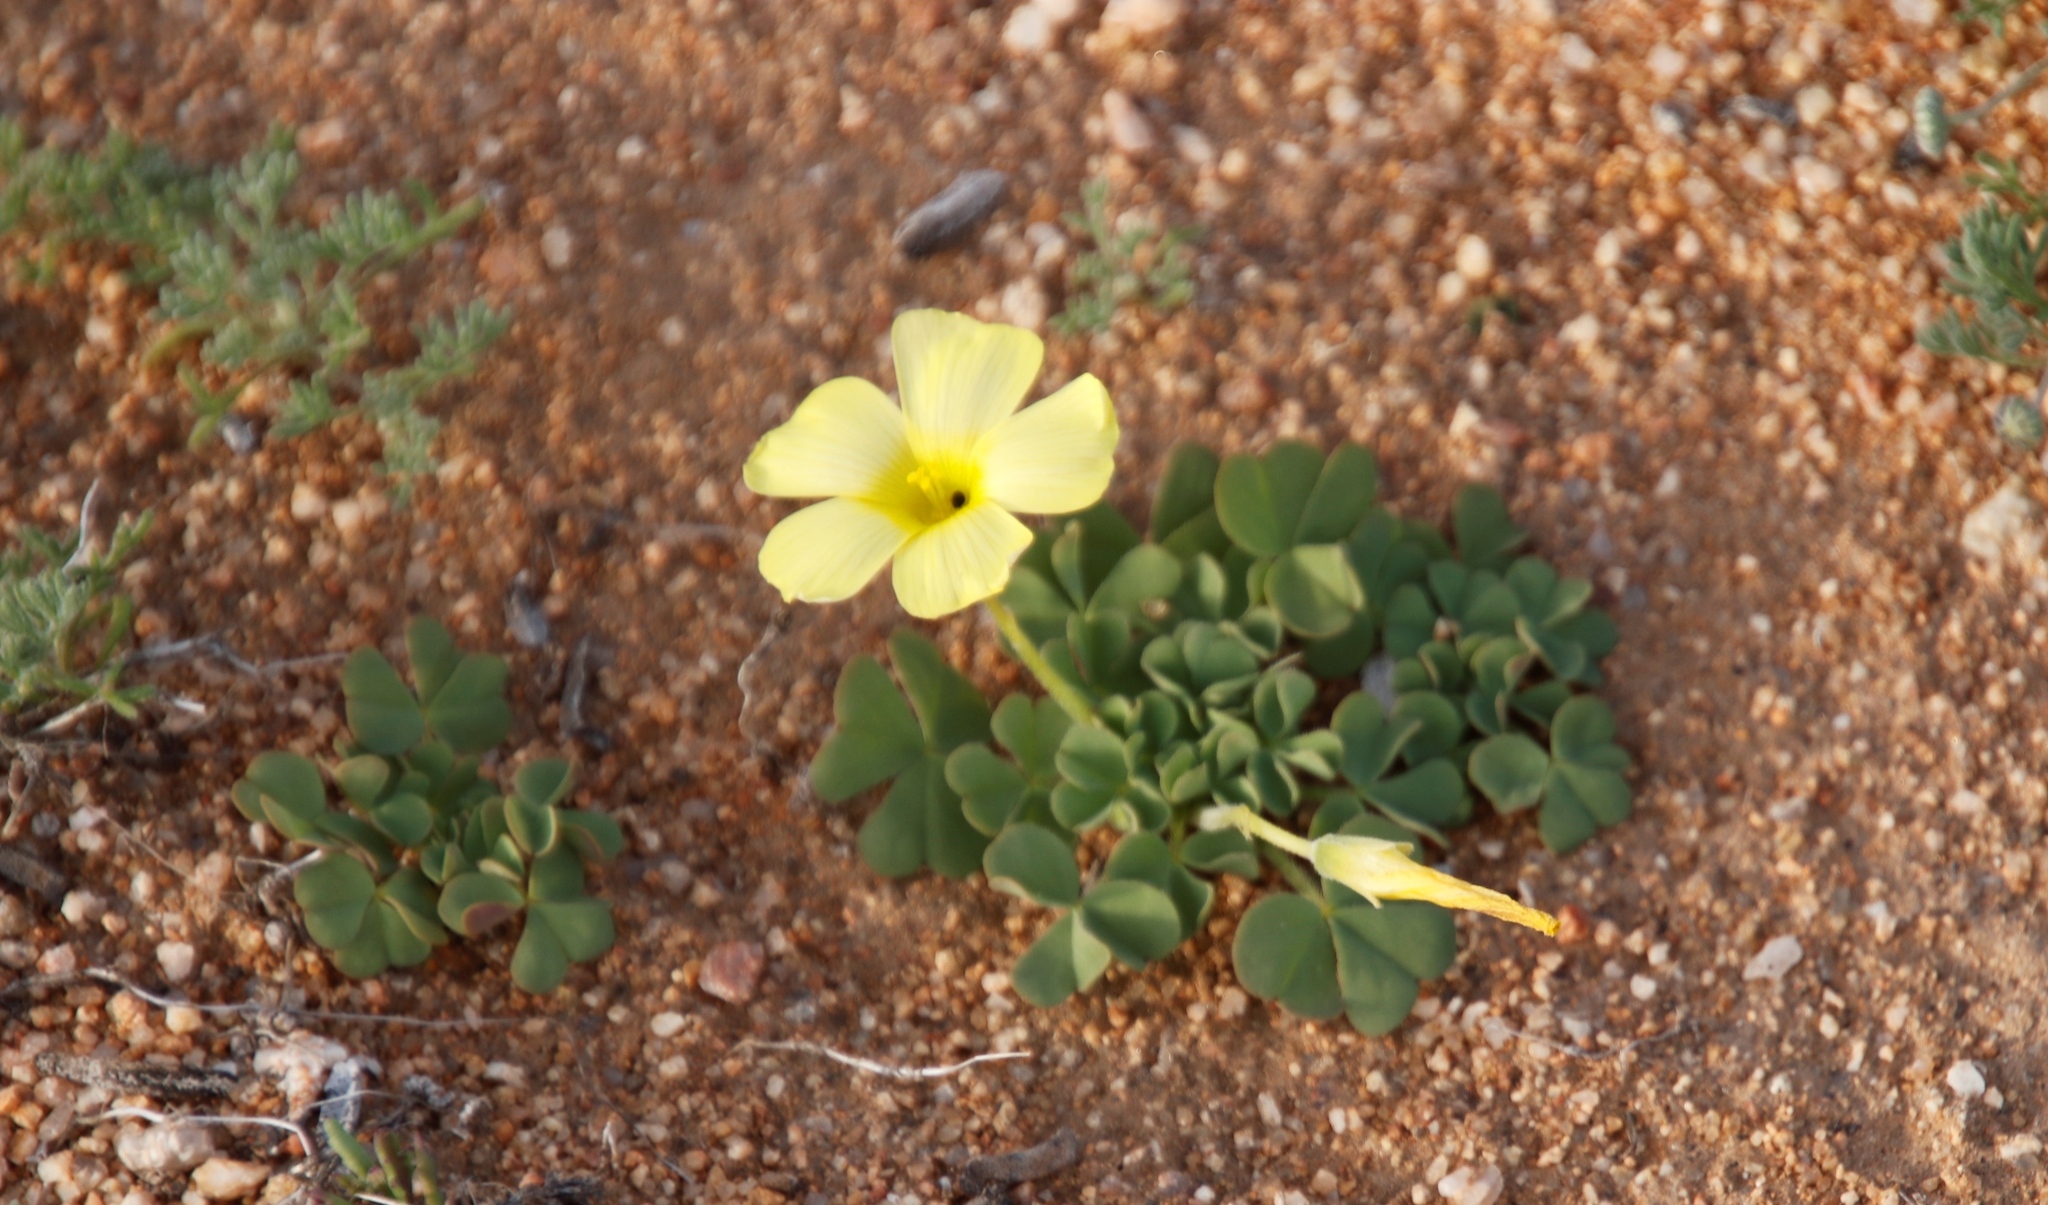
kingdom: Plantae
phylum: Tracheophyta
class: Magnoliopsida
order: Oxalidales
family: Oxalidaceae
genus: Oxalis
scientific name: Oxalis obtusa
